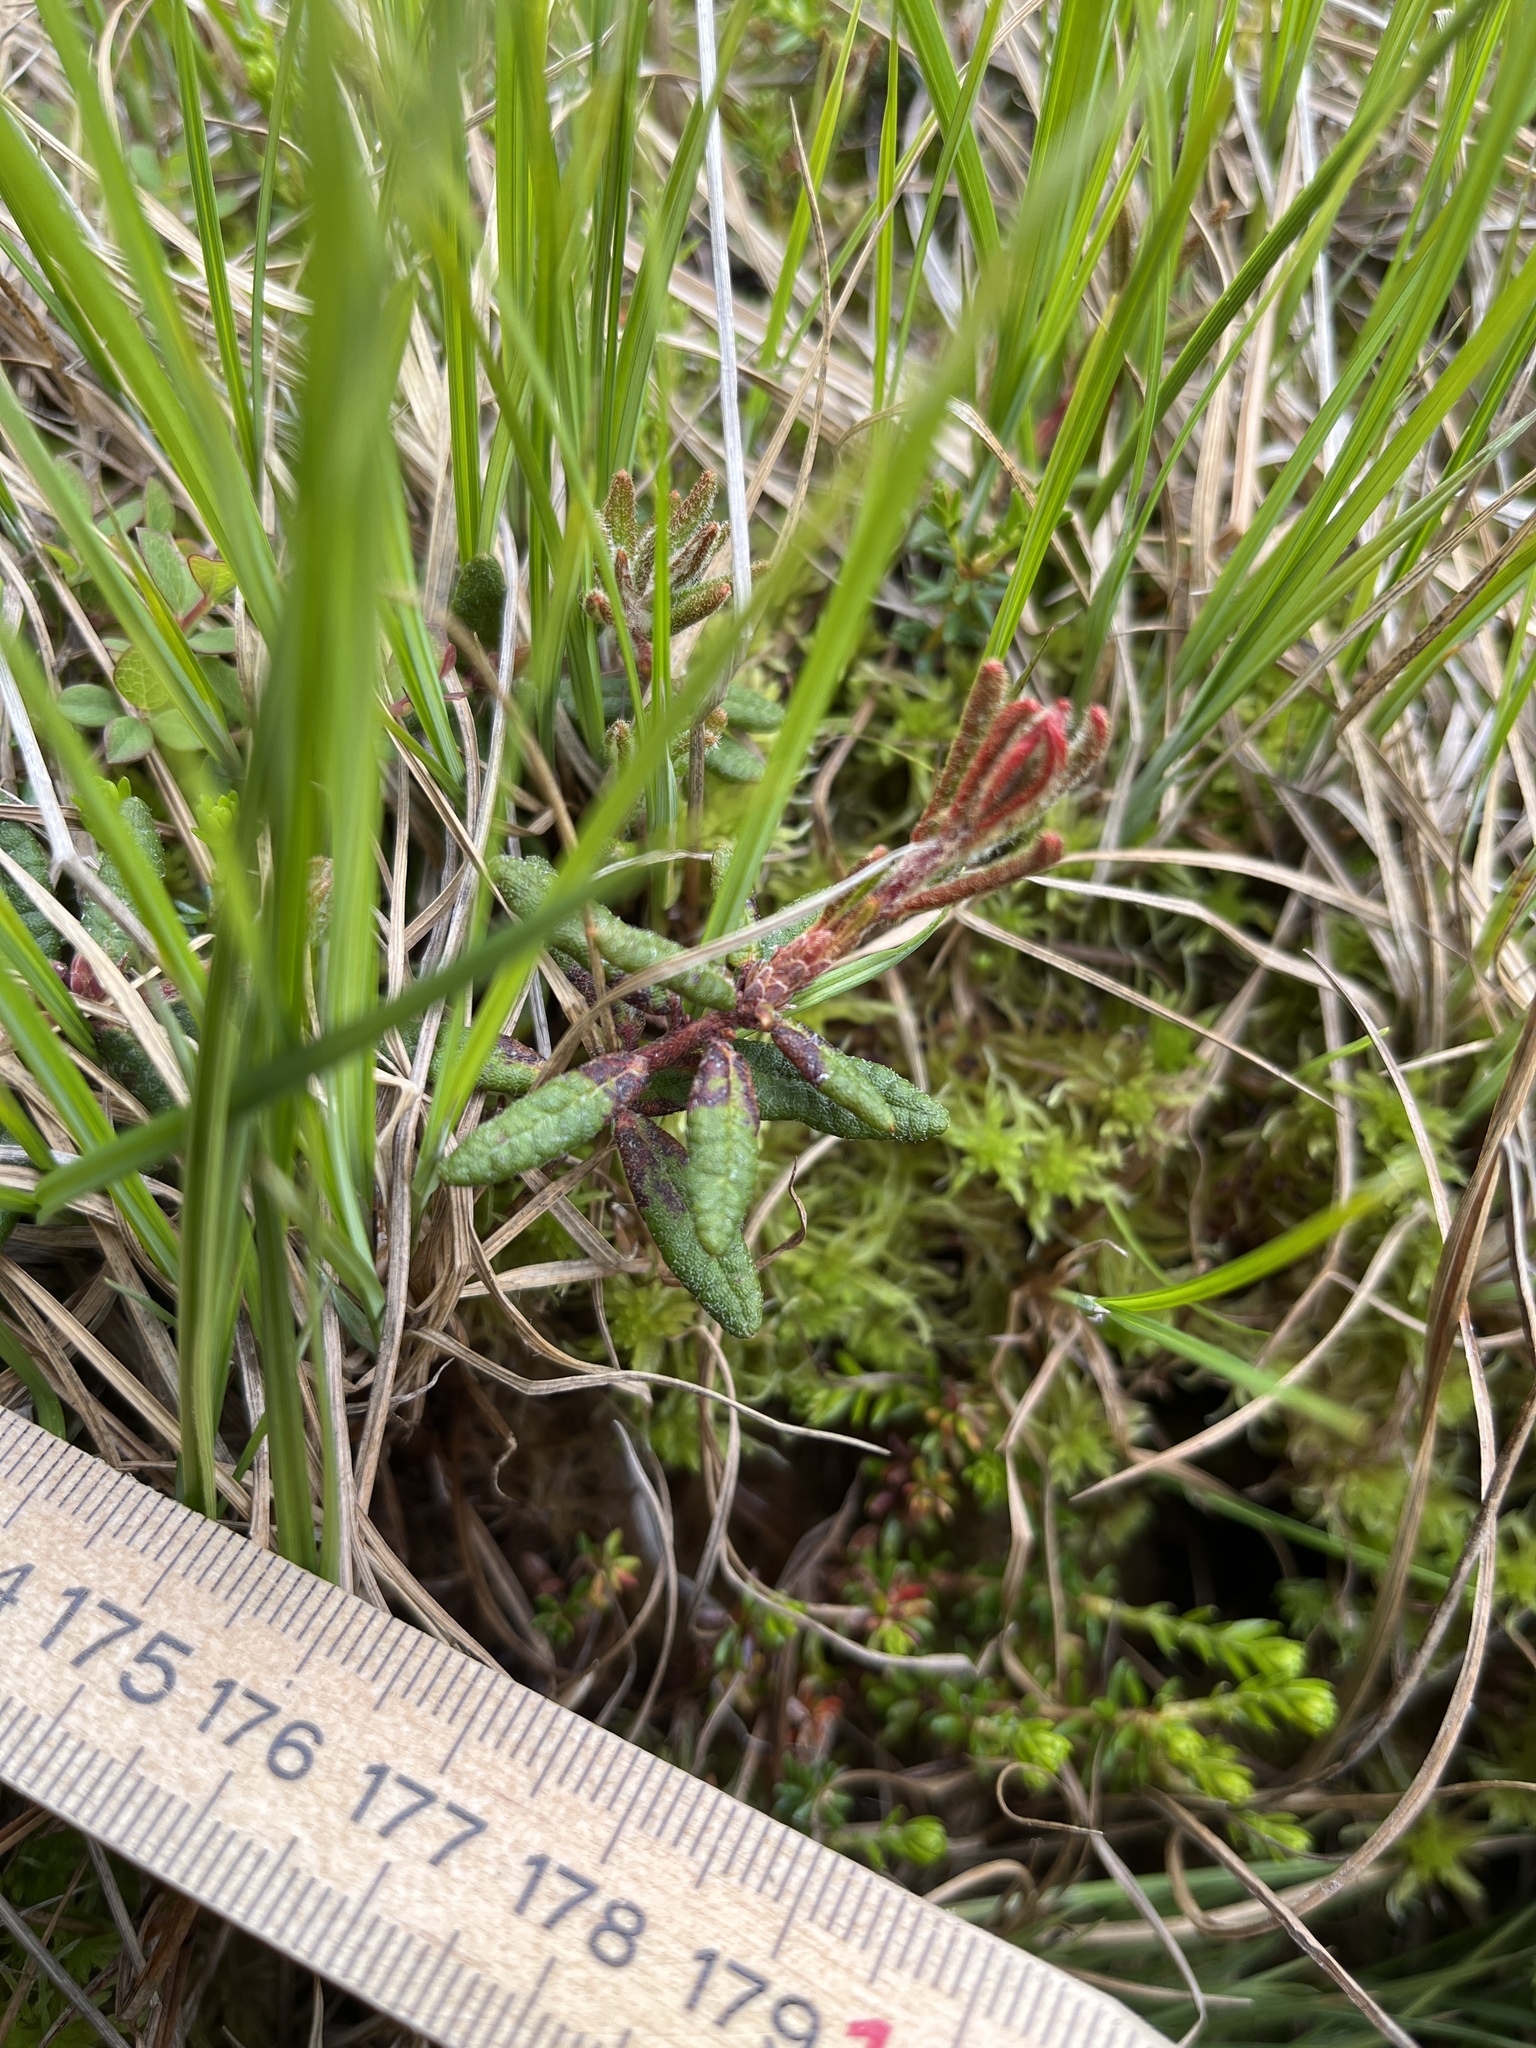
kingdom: Plantae
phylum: Tracheophyta
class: Magnoliopsida
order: Ericales
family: Ericaceae
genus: Rhododendron
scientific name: Rhododendron groenlandicum
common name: Bog labrador tea
